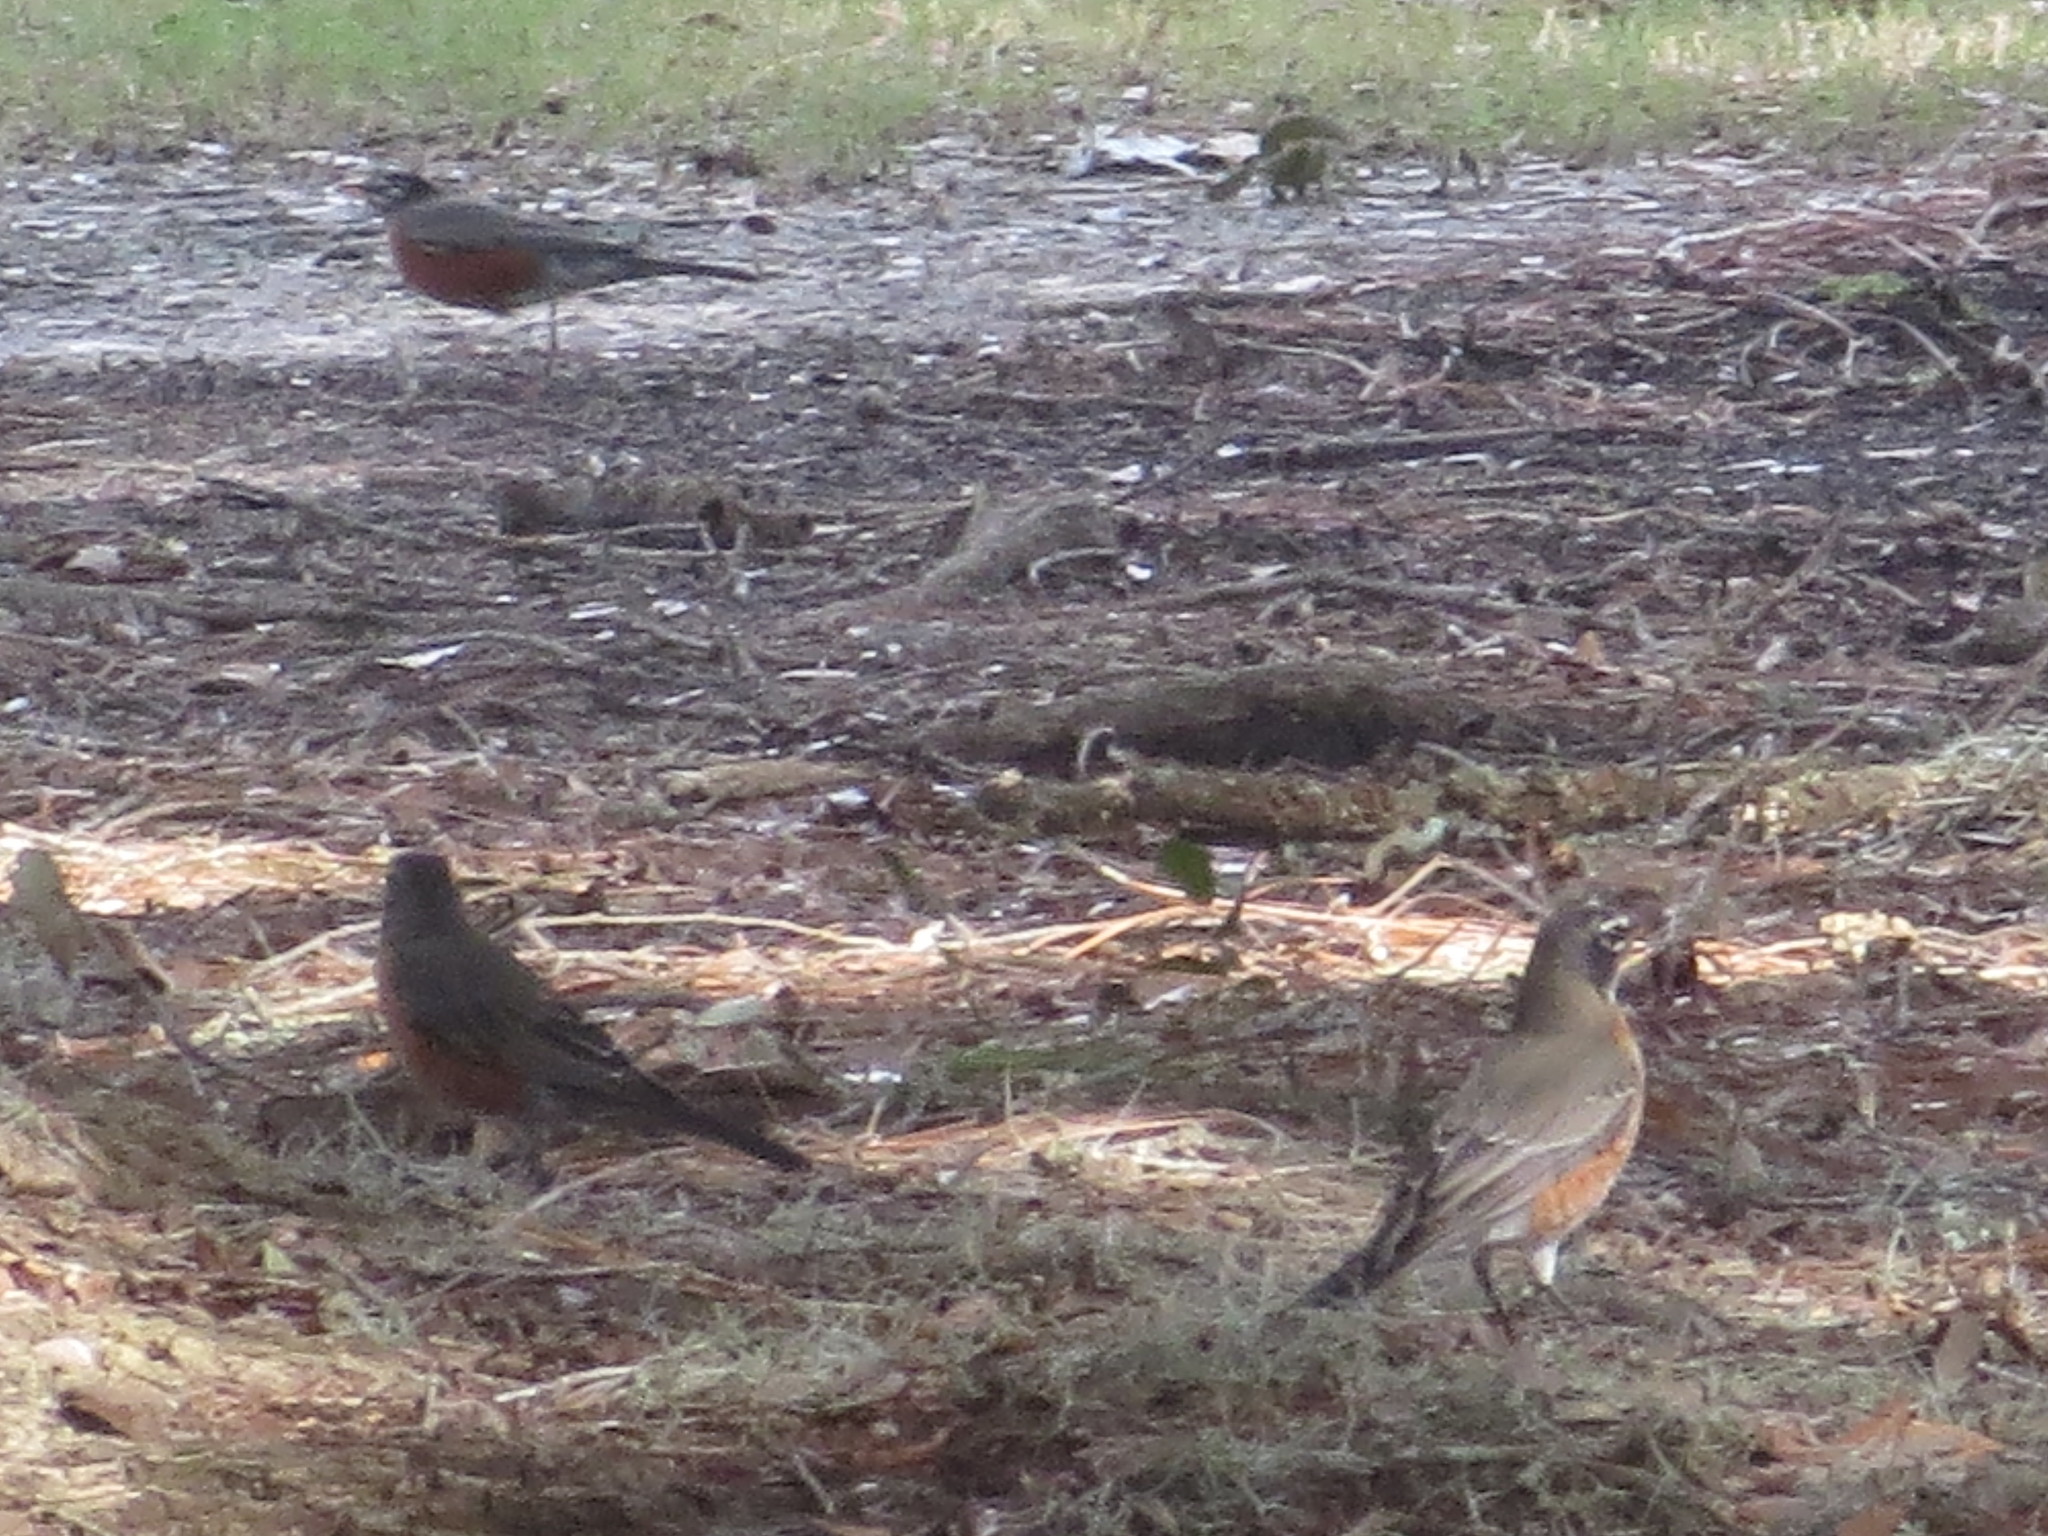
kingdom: Animalia
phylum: Chordata
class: Aves
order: Passeriformes
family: Turdidae
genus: Turdus
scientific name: Turdus migratorius
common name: American robin
